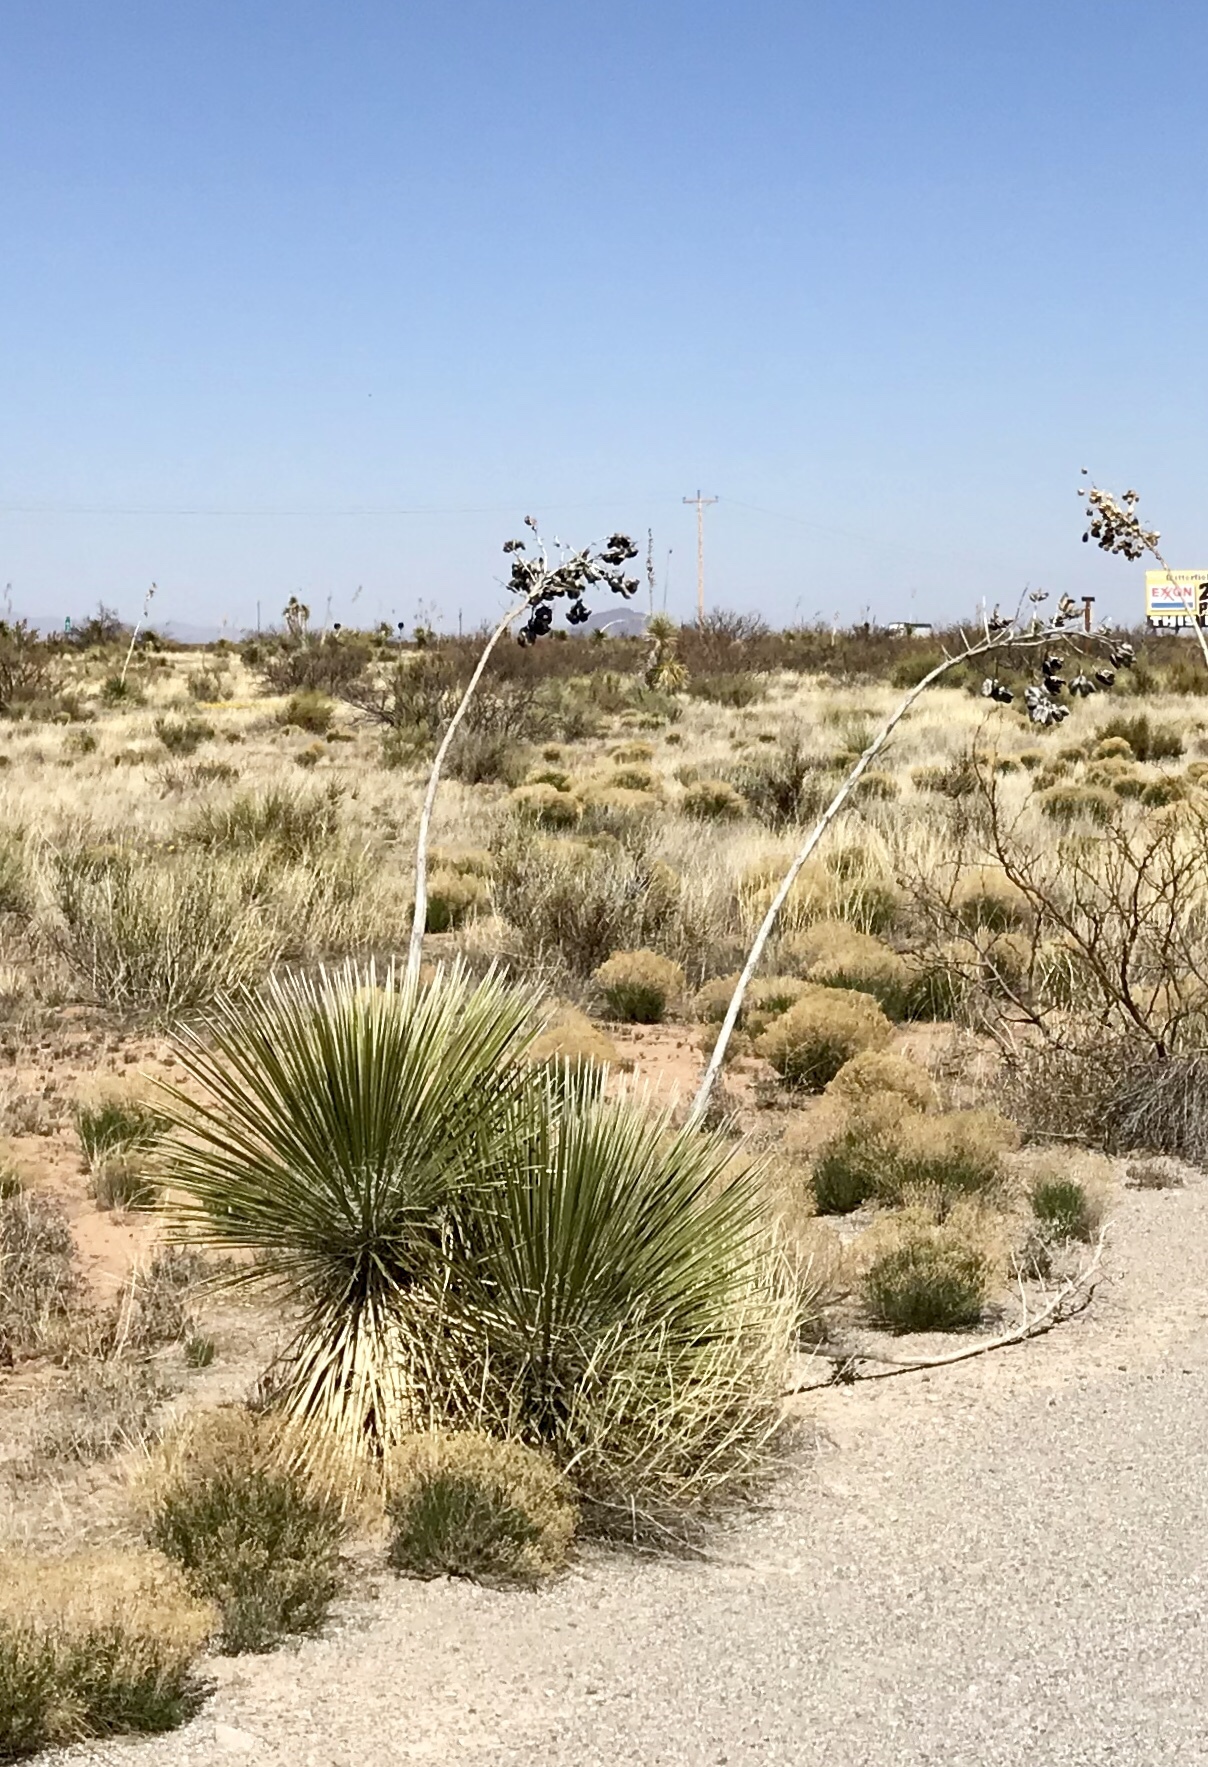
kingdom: Plantae
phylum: Tracheophyta
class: Liliopsida
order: Asparagales
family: Asparagaceae
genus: Yucca
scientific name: Yucca elata
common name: Palmella
